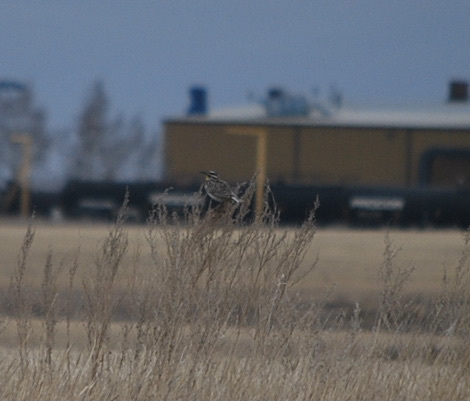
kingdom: Animalia
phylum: Chordata
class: Aves
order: Passeriformes
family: Icteridae
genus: Sturnella
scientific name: Sturnella neglecta
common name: Western meadowlark
